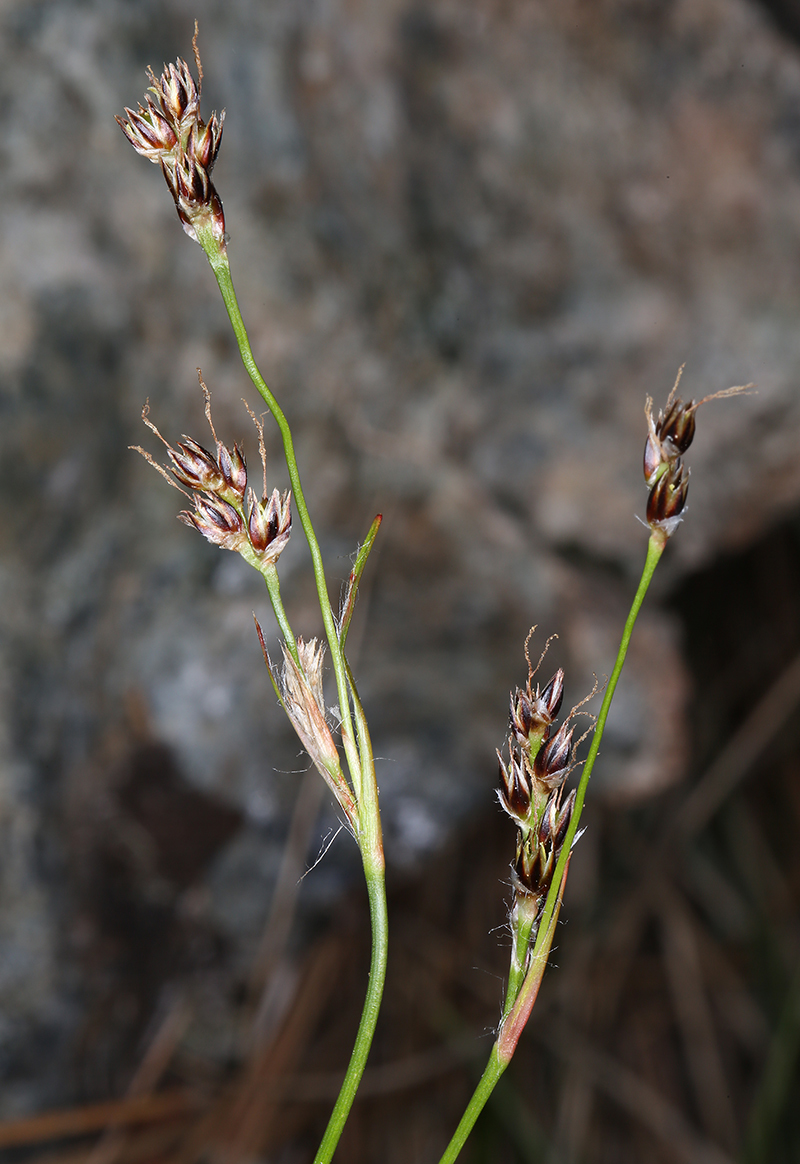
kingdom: Plantae
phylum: Tracheophyta
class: Liliopsida
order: Poales
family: Juncaceae
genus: Luzula
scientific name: Luzula comosa
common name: Pacific woodrush
